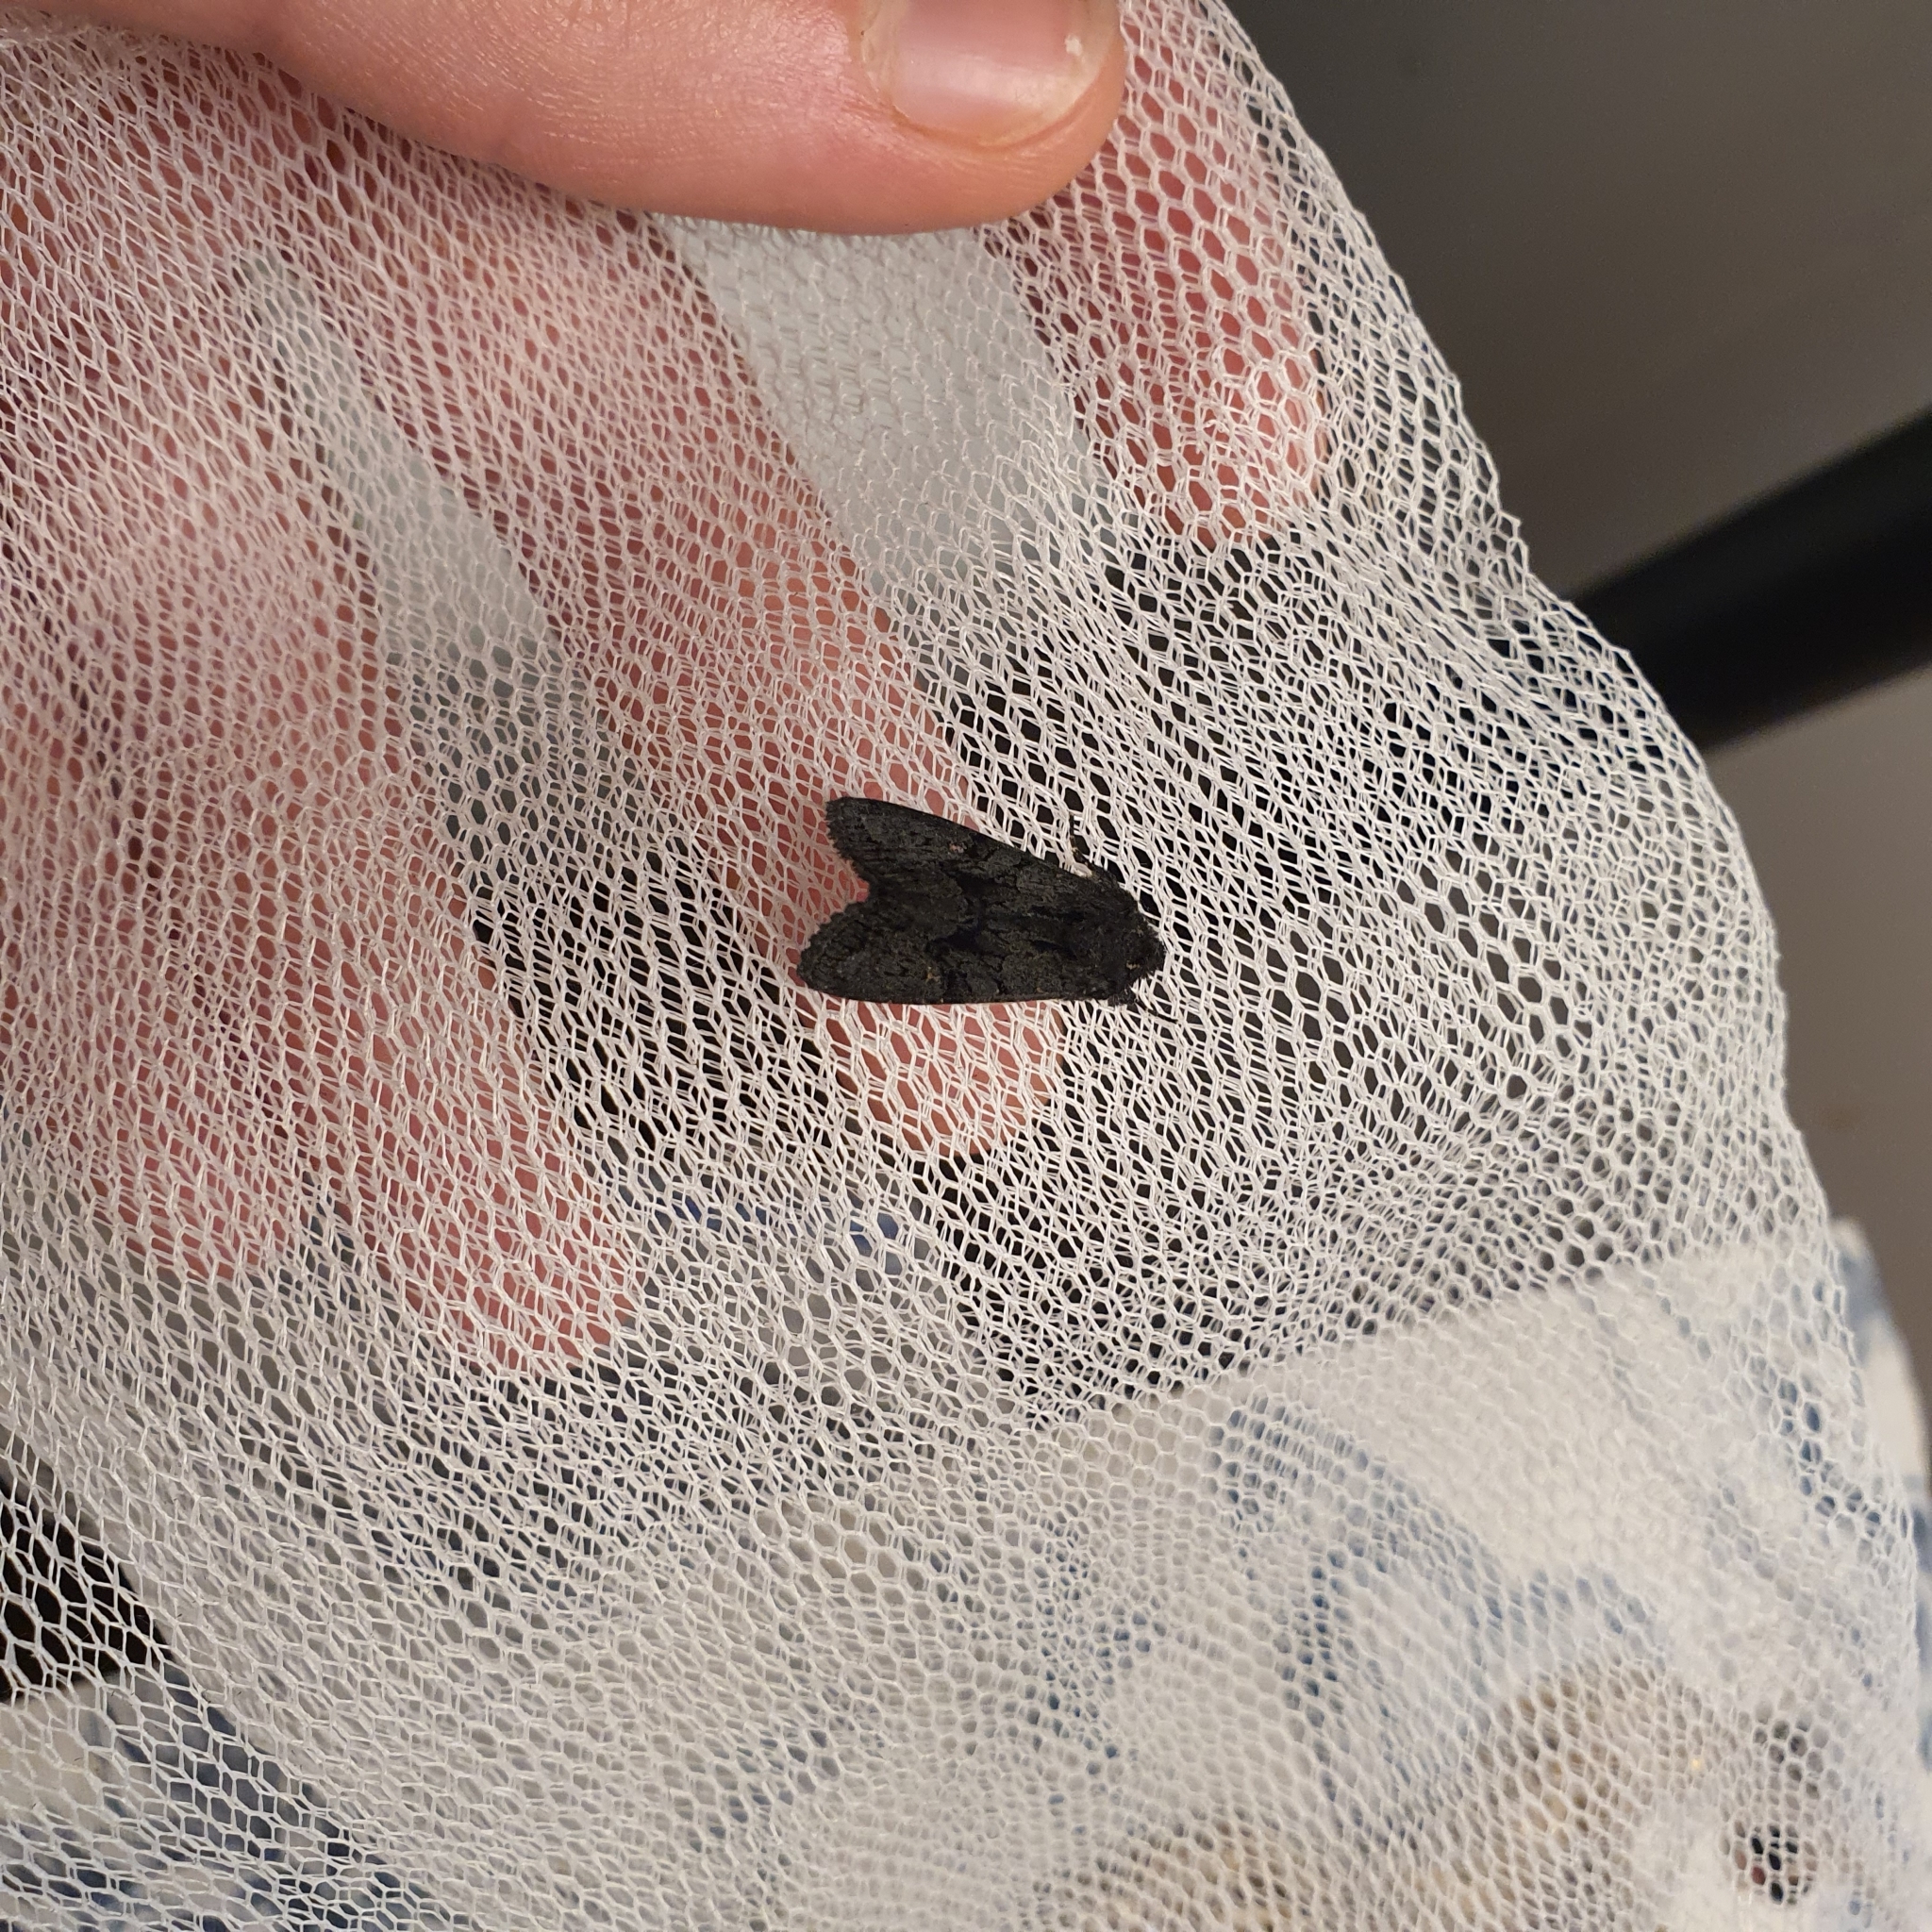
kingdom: Animalia
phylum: Arthropoda
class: Insecta
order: Lepidoptera
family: Noctuidae
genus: Neumichtis
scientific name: Neumichtis nigerrima
